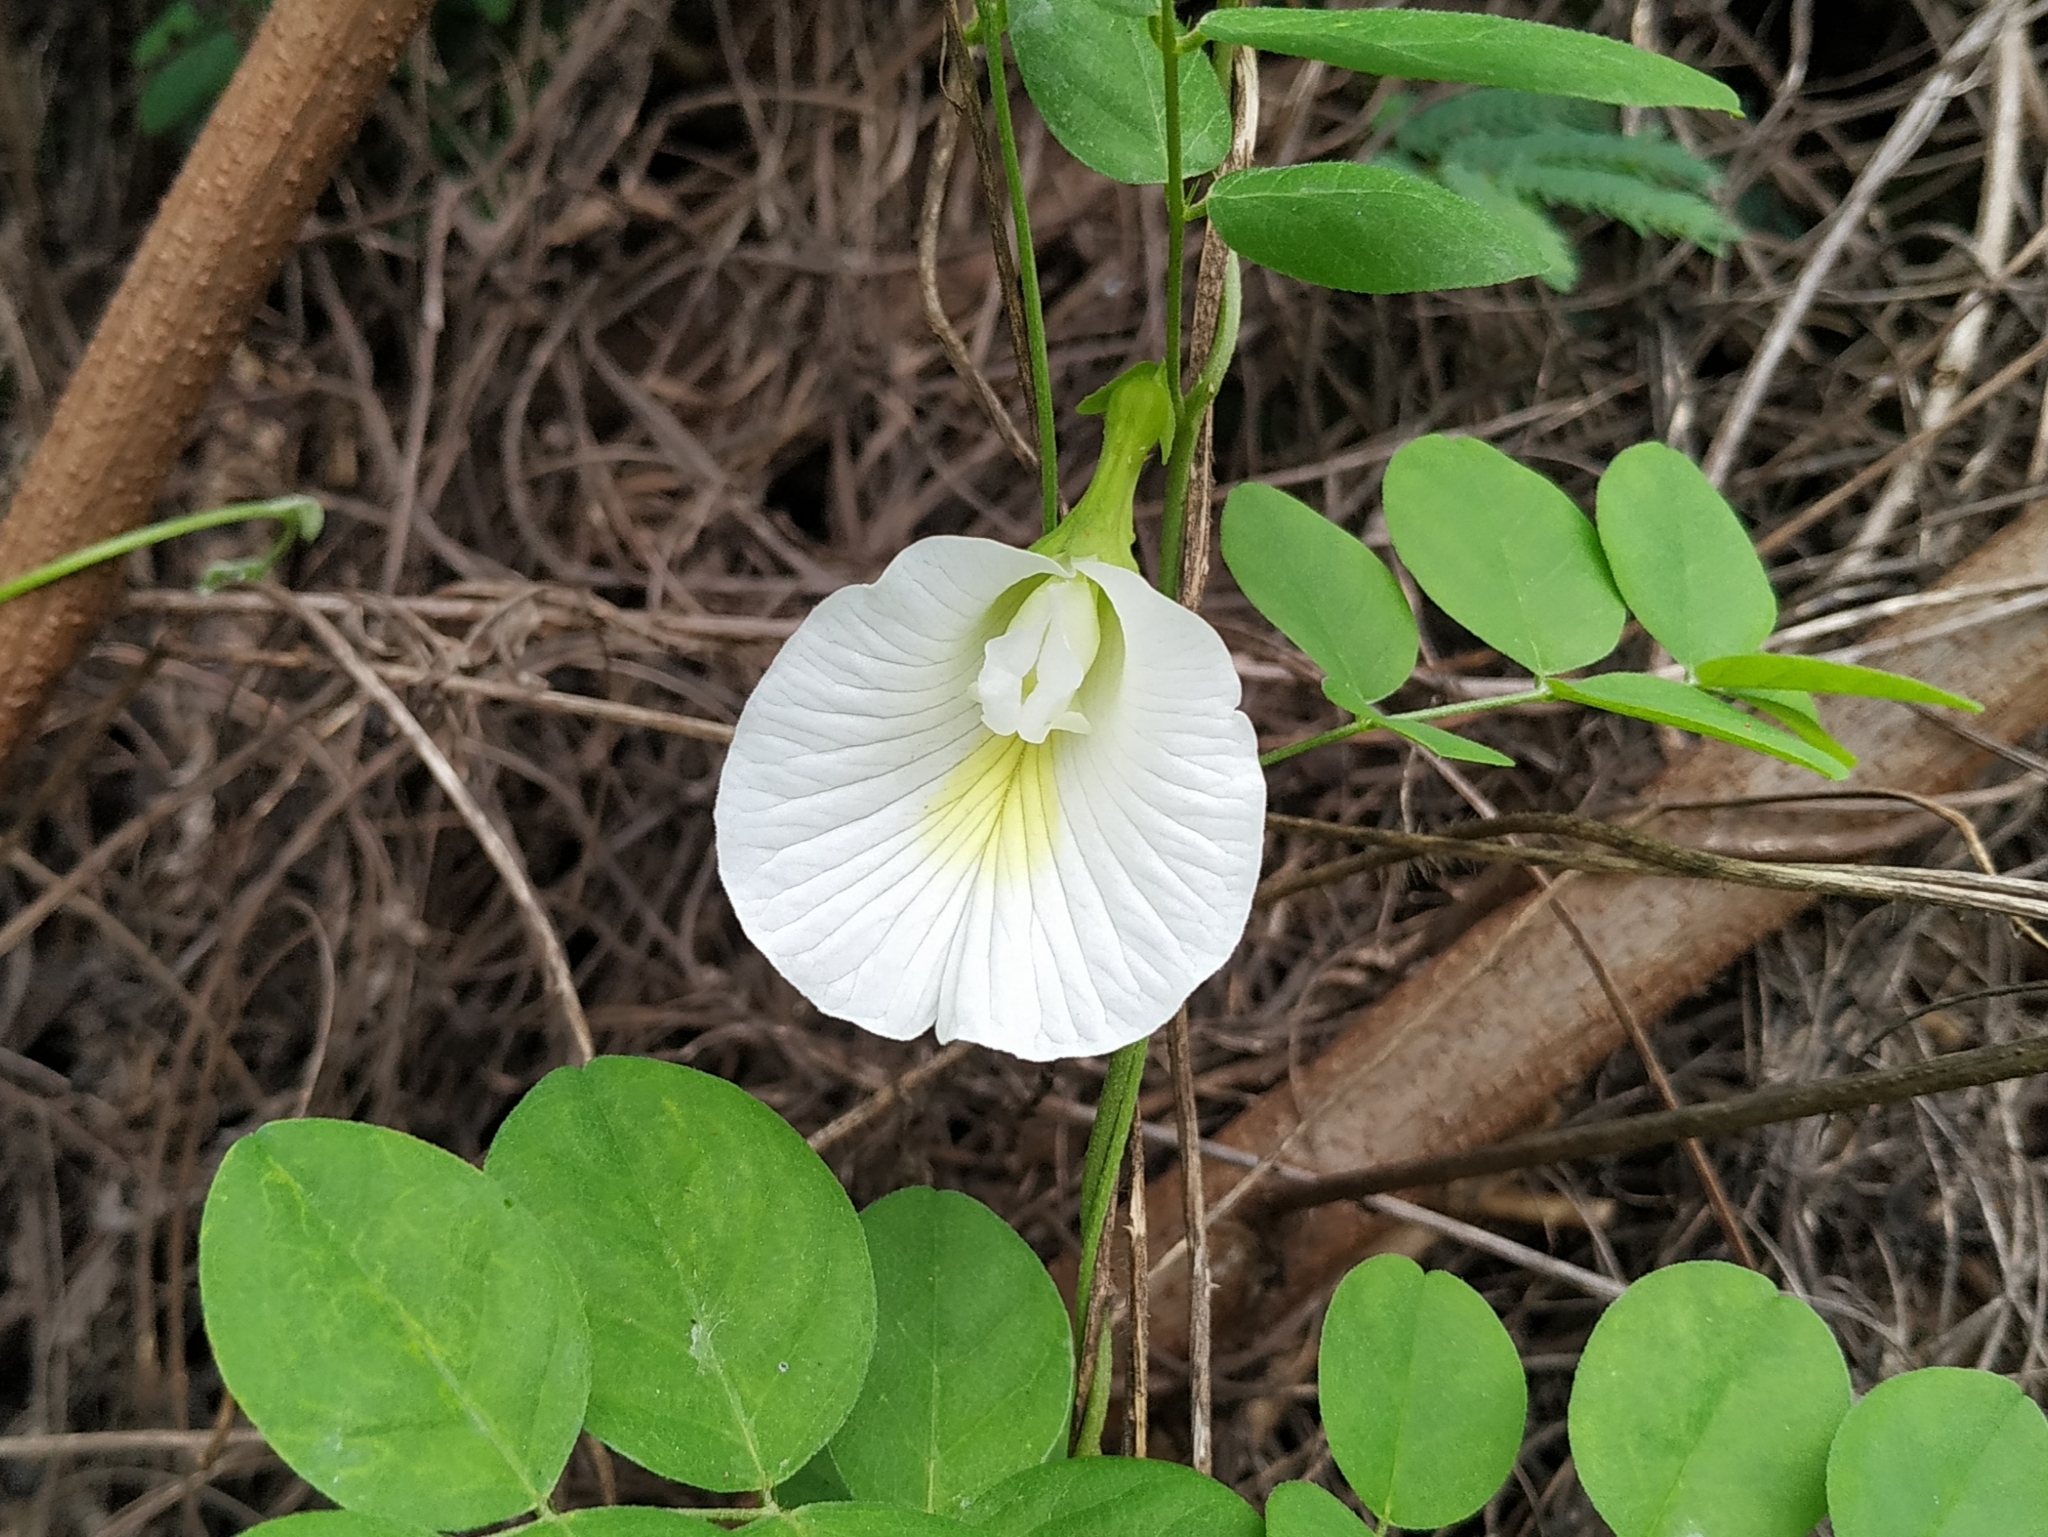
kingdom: Plantae
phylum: Tracheophyta
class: Magnoliopsida
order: Fabales
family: Fabaceae
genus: Clitoria
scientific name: Clitoria ternatea
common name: Asian pigeonwings
